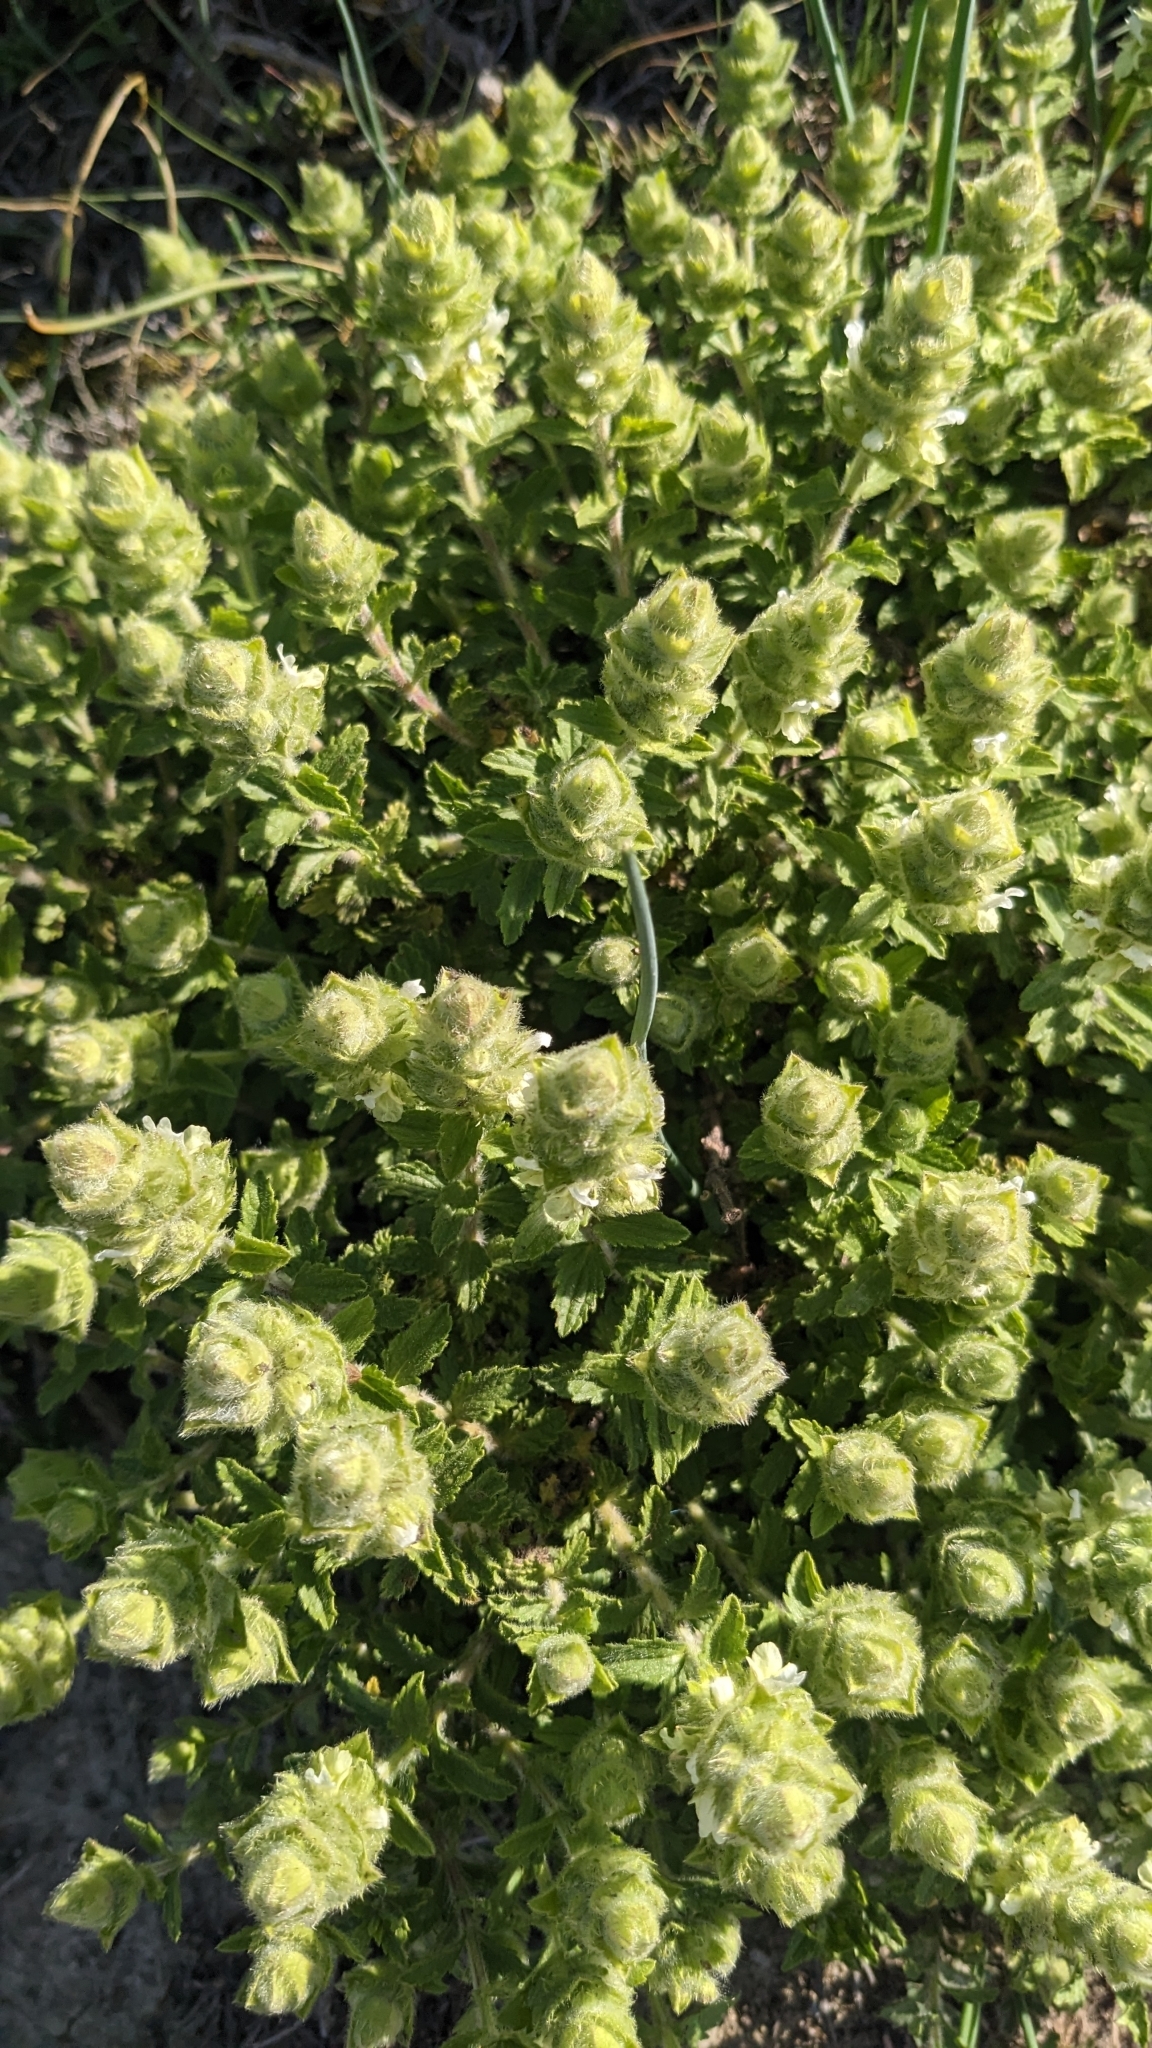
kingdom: Plantae
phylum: Tracheophyta
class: Magnoliopsida
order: Lamiales
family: Lamiaceae
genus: Sideritis
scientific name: Sideritis hirsuta
